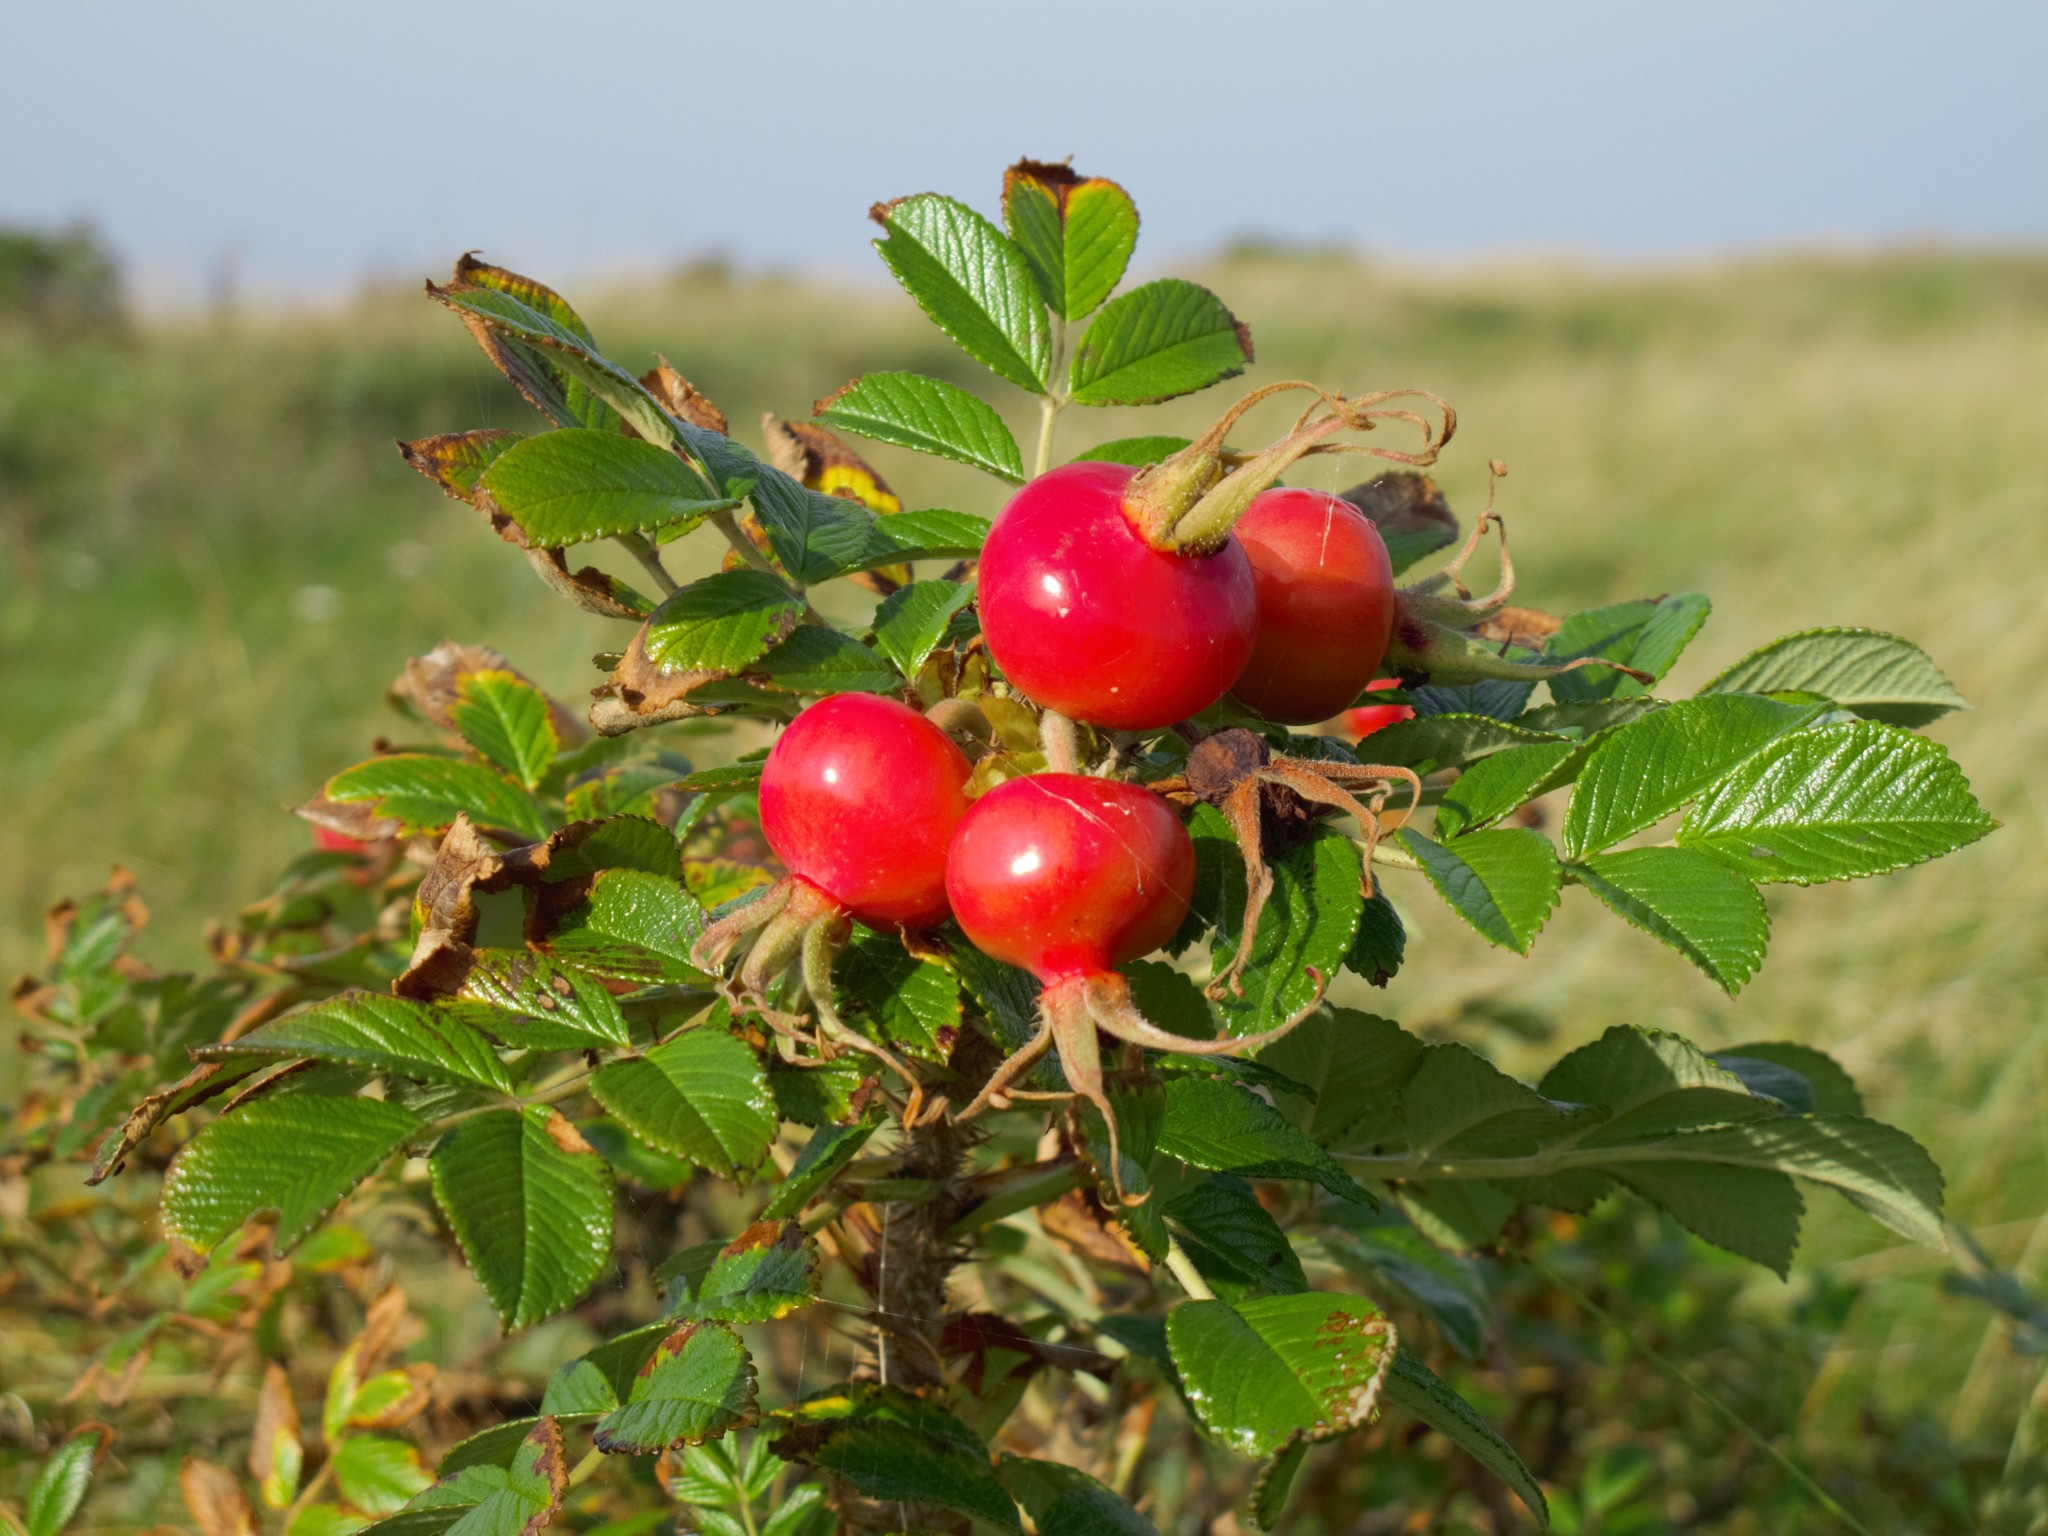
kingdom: Plantae
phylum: Tracheophyta
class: Magnoliopsida
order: Rosales
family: Rosaceae
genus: Rosa
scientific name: Rosa rugosa
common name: Japanese rose
